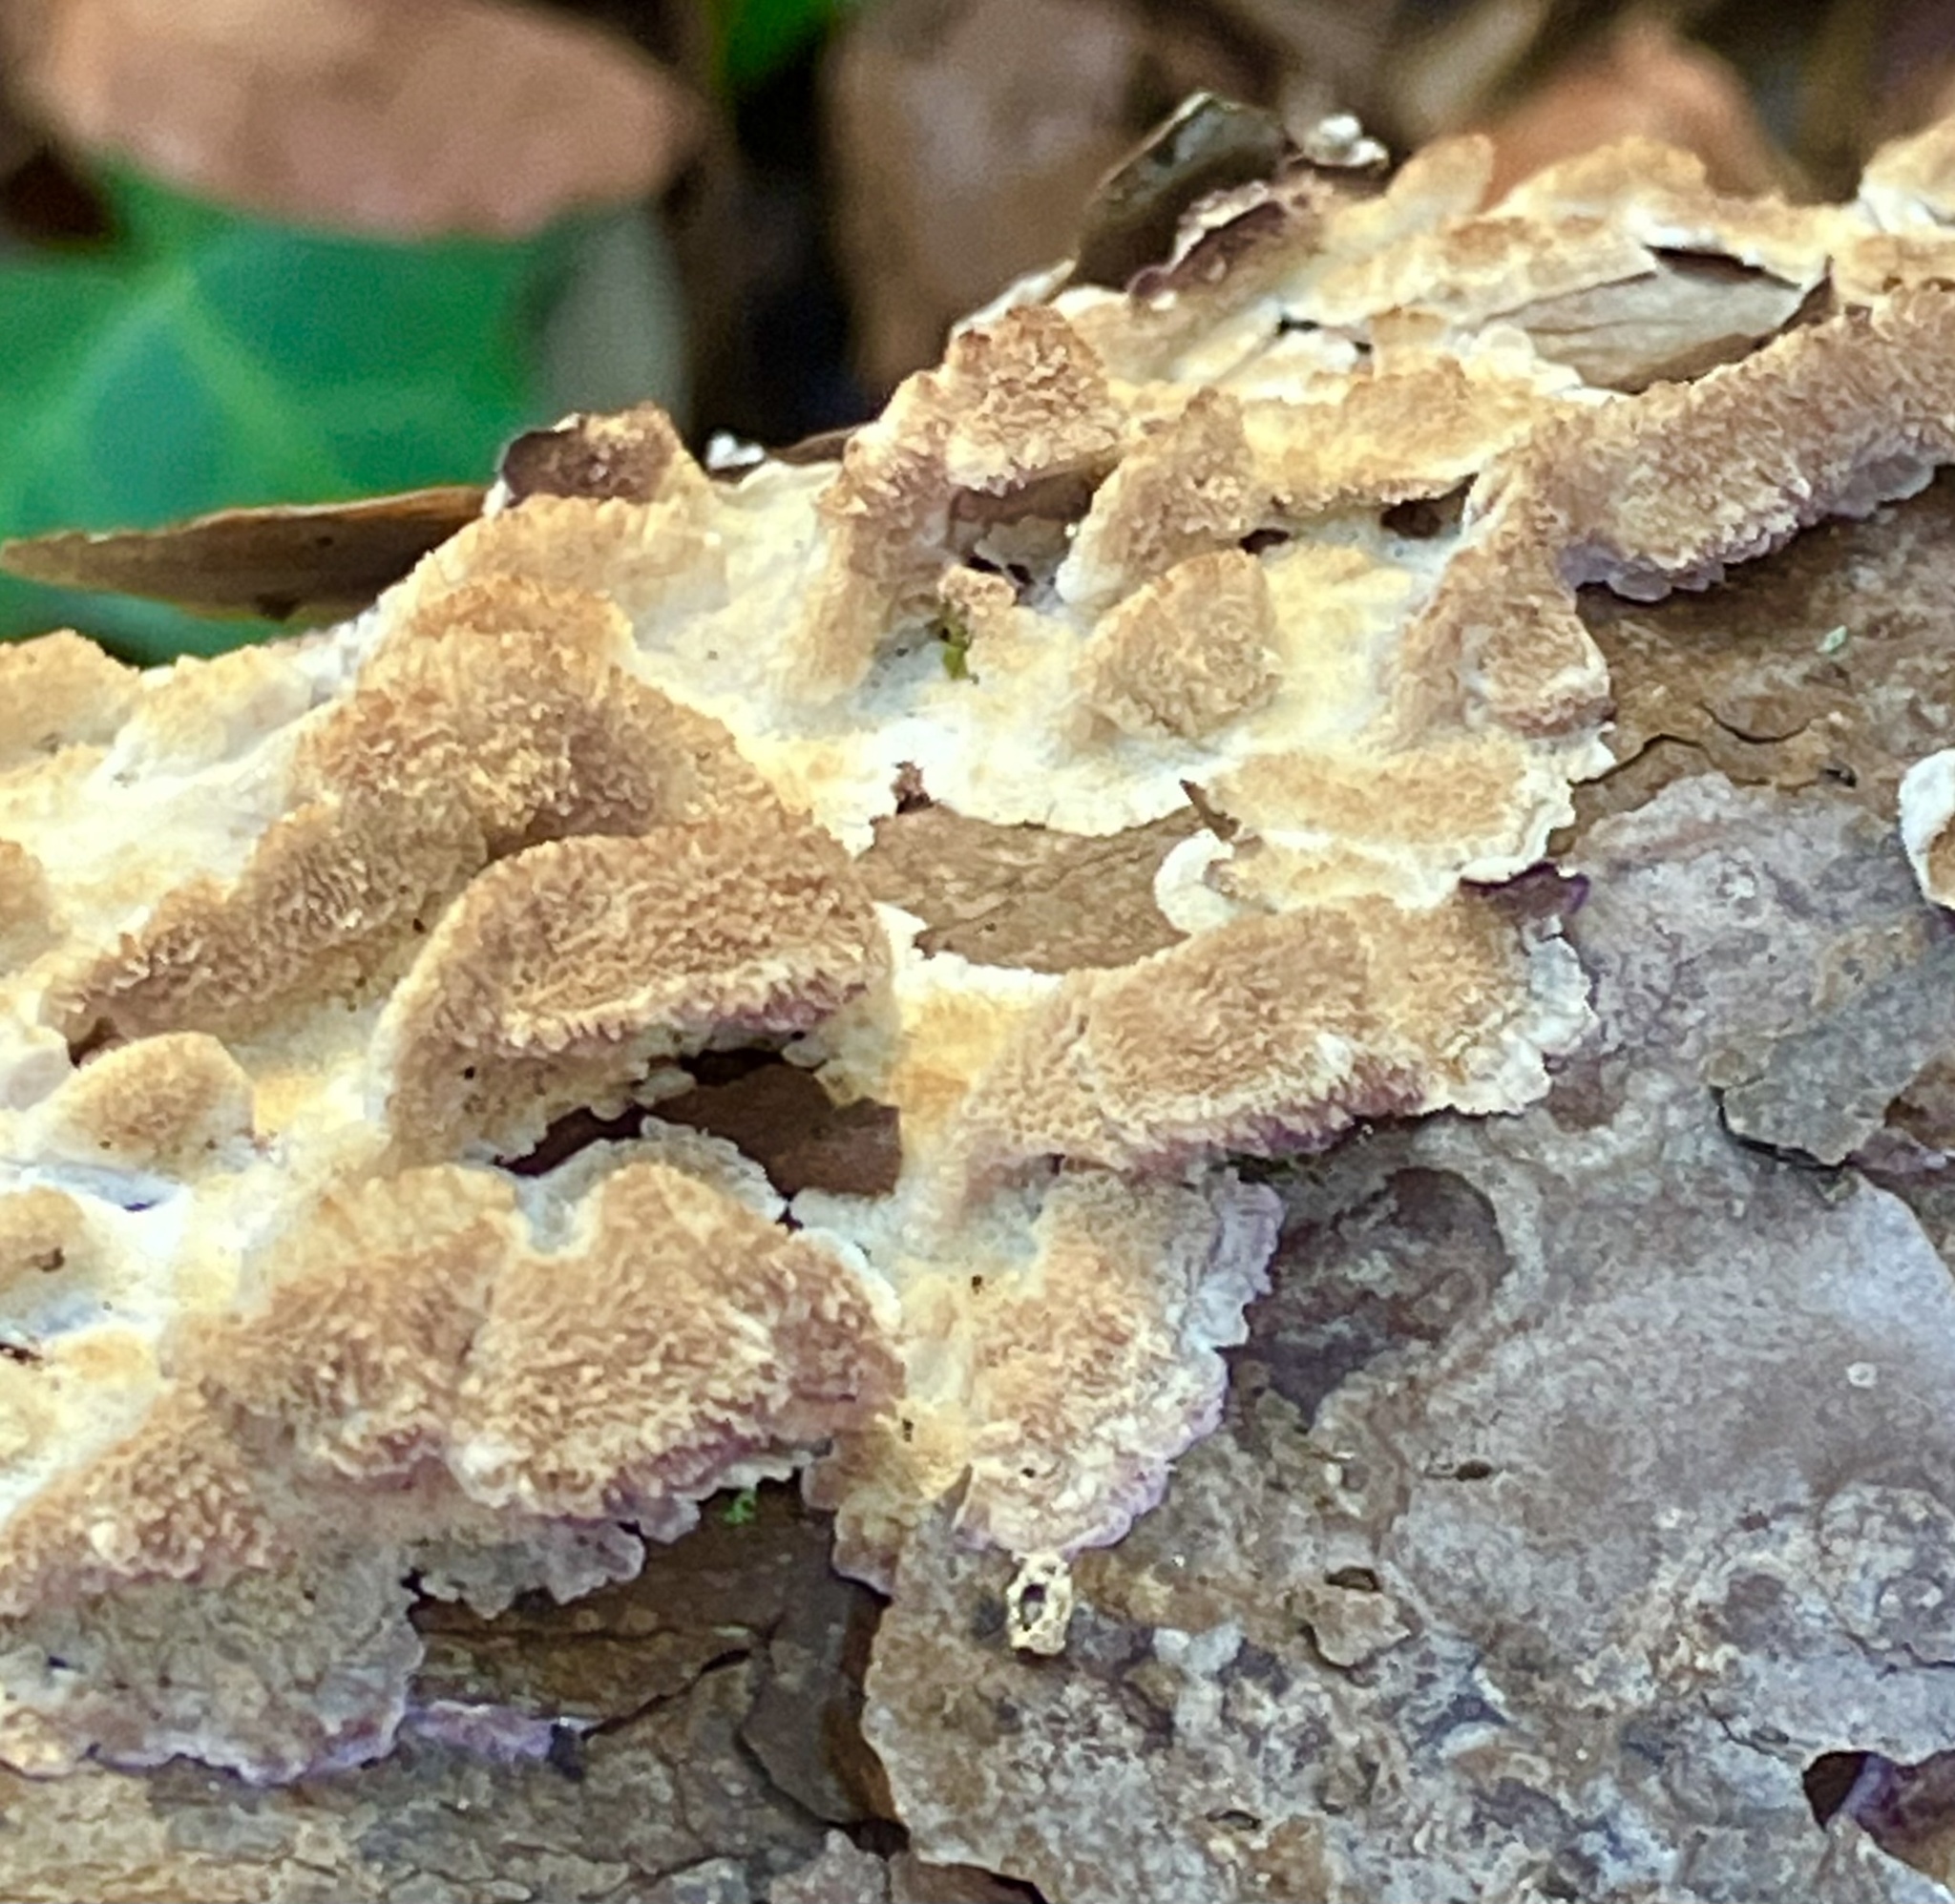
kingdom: Fungi
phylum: Basidiomycota
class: Agaricomycetes
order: Polyporales
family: Irpicaceae
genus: Trametopsis
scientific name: Trametopsis cervina
